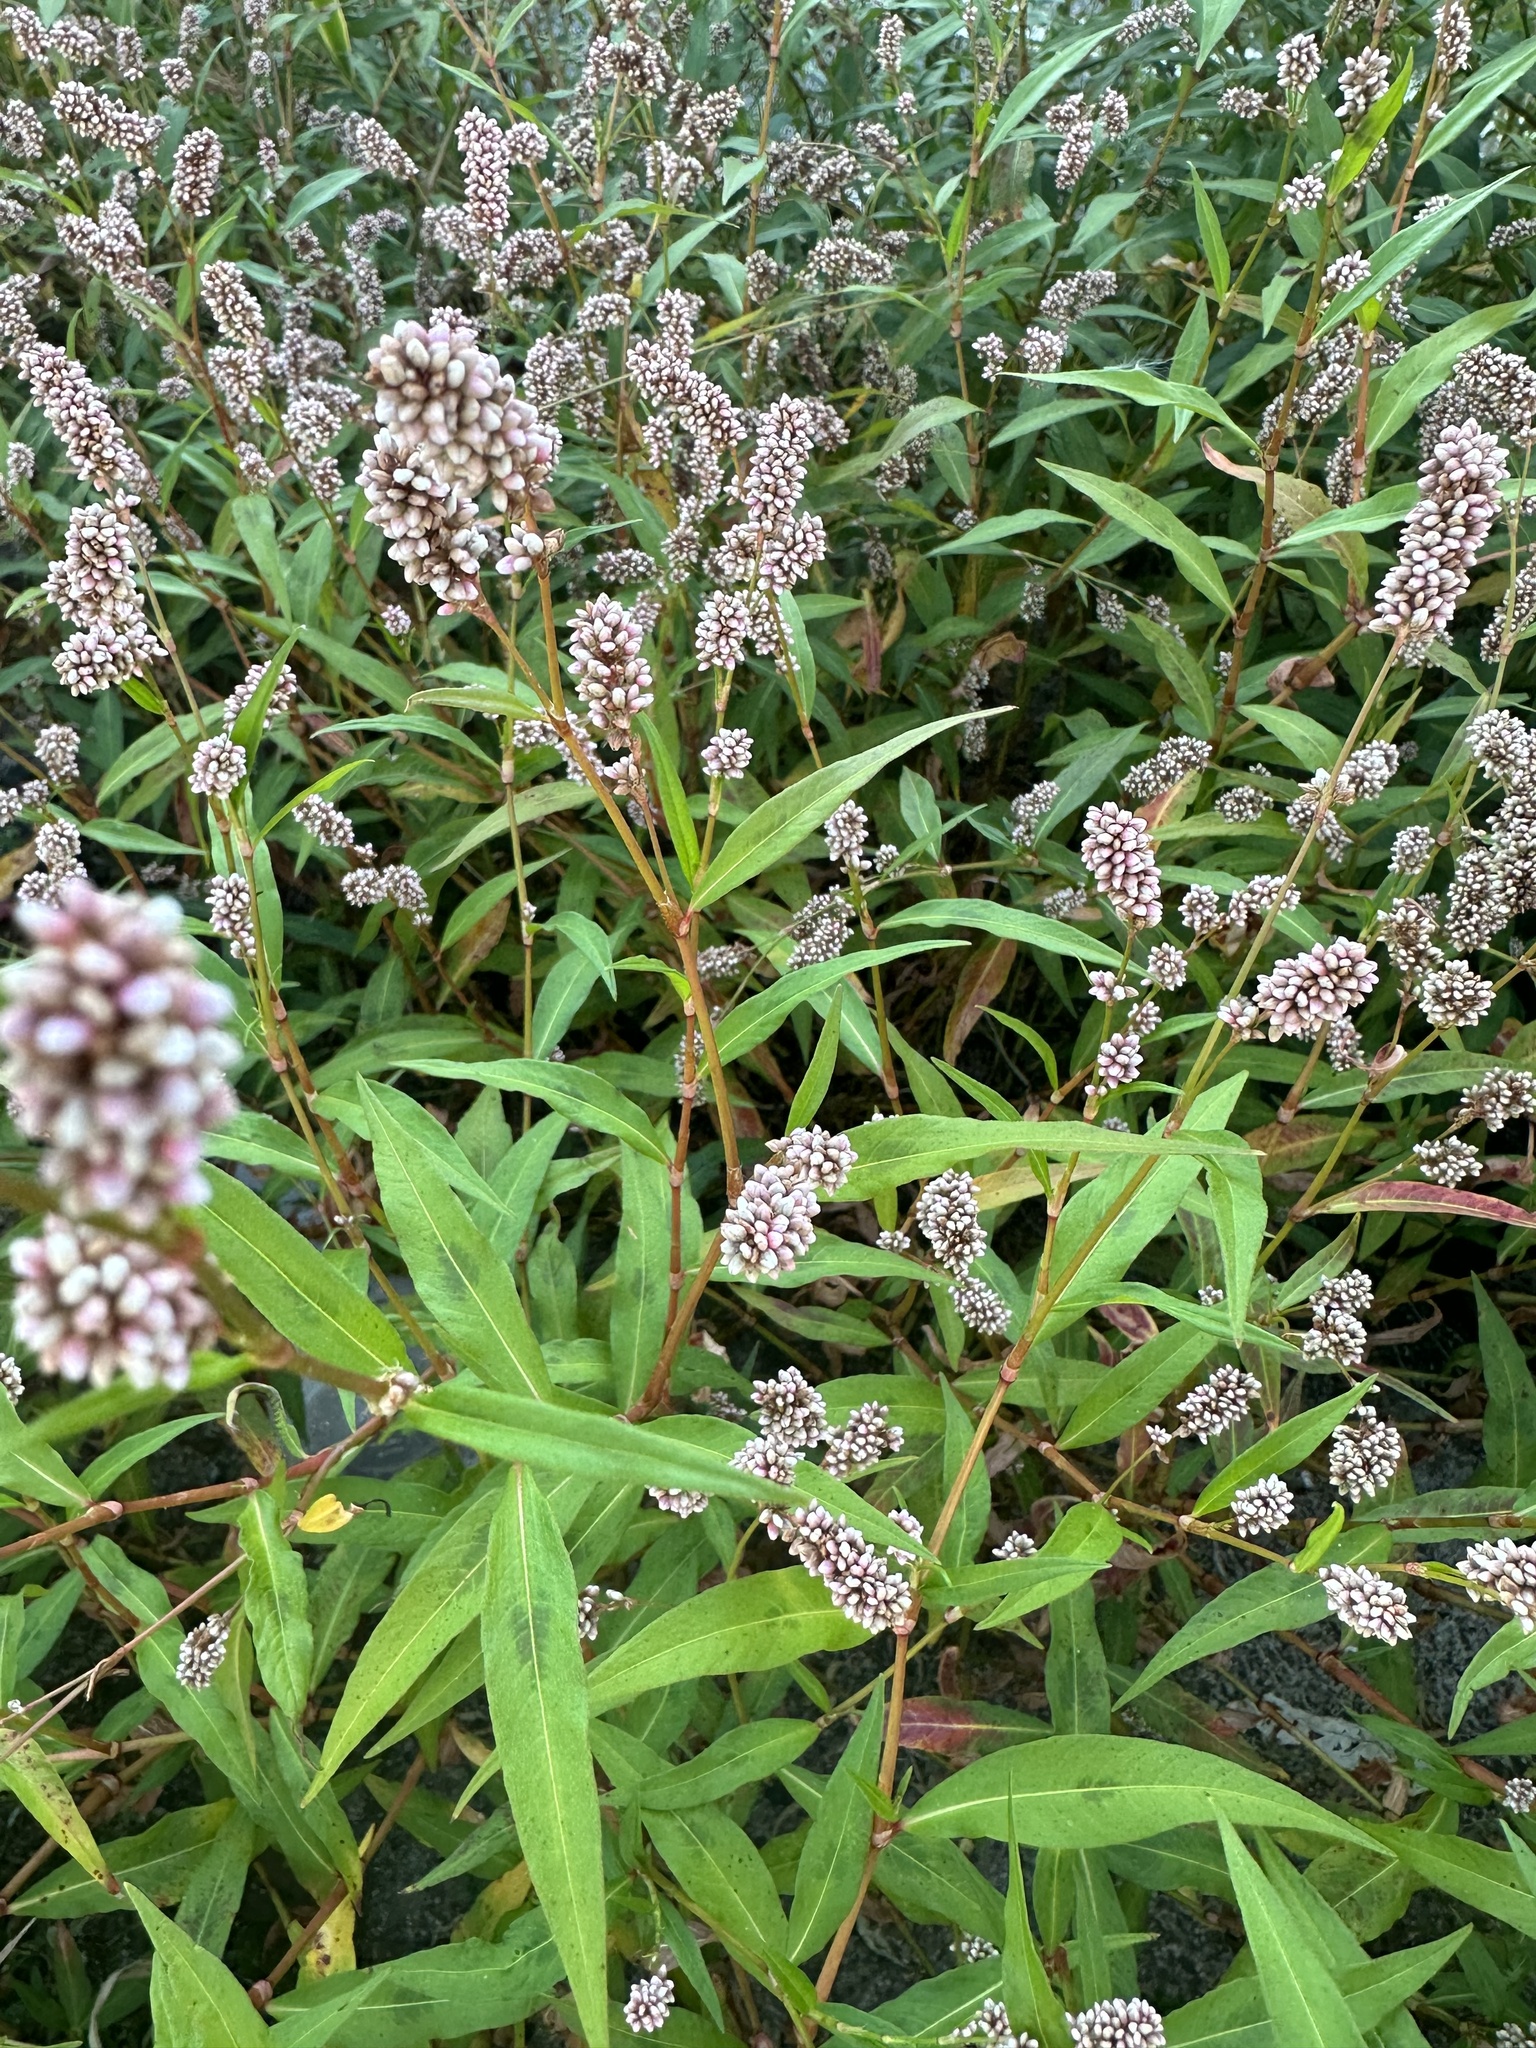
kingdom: Plantae
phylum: Tracheophyta
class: Magnoliopsida
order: Caryophyllales
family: Polygonaceae
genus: Persicaria
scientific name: Persicaria pensylvanica
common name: Pinkweed
